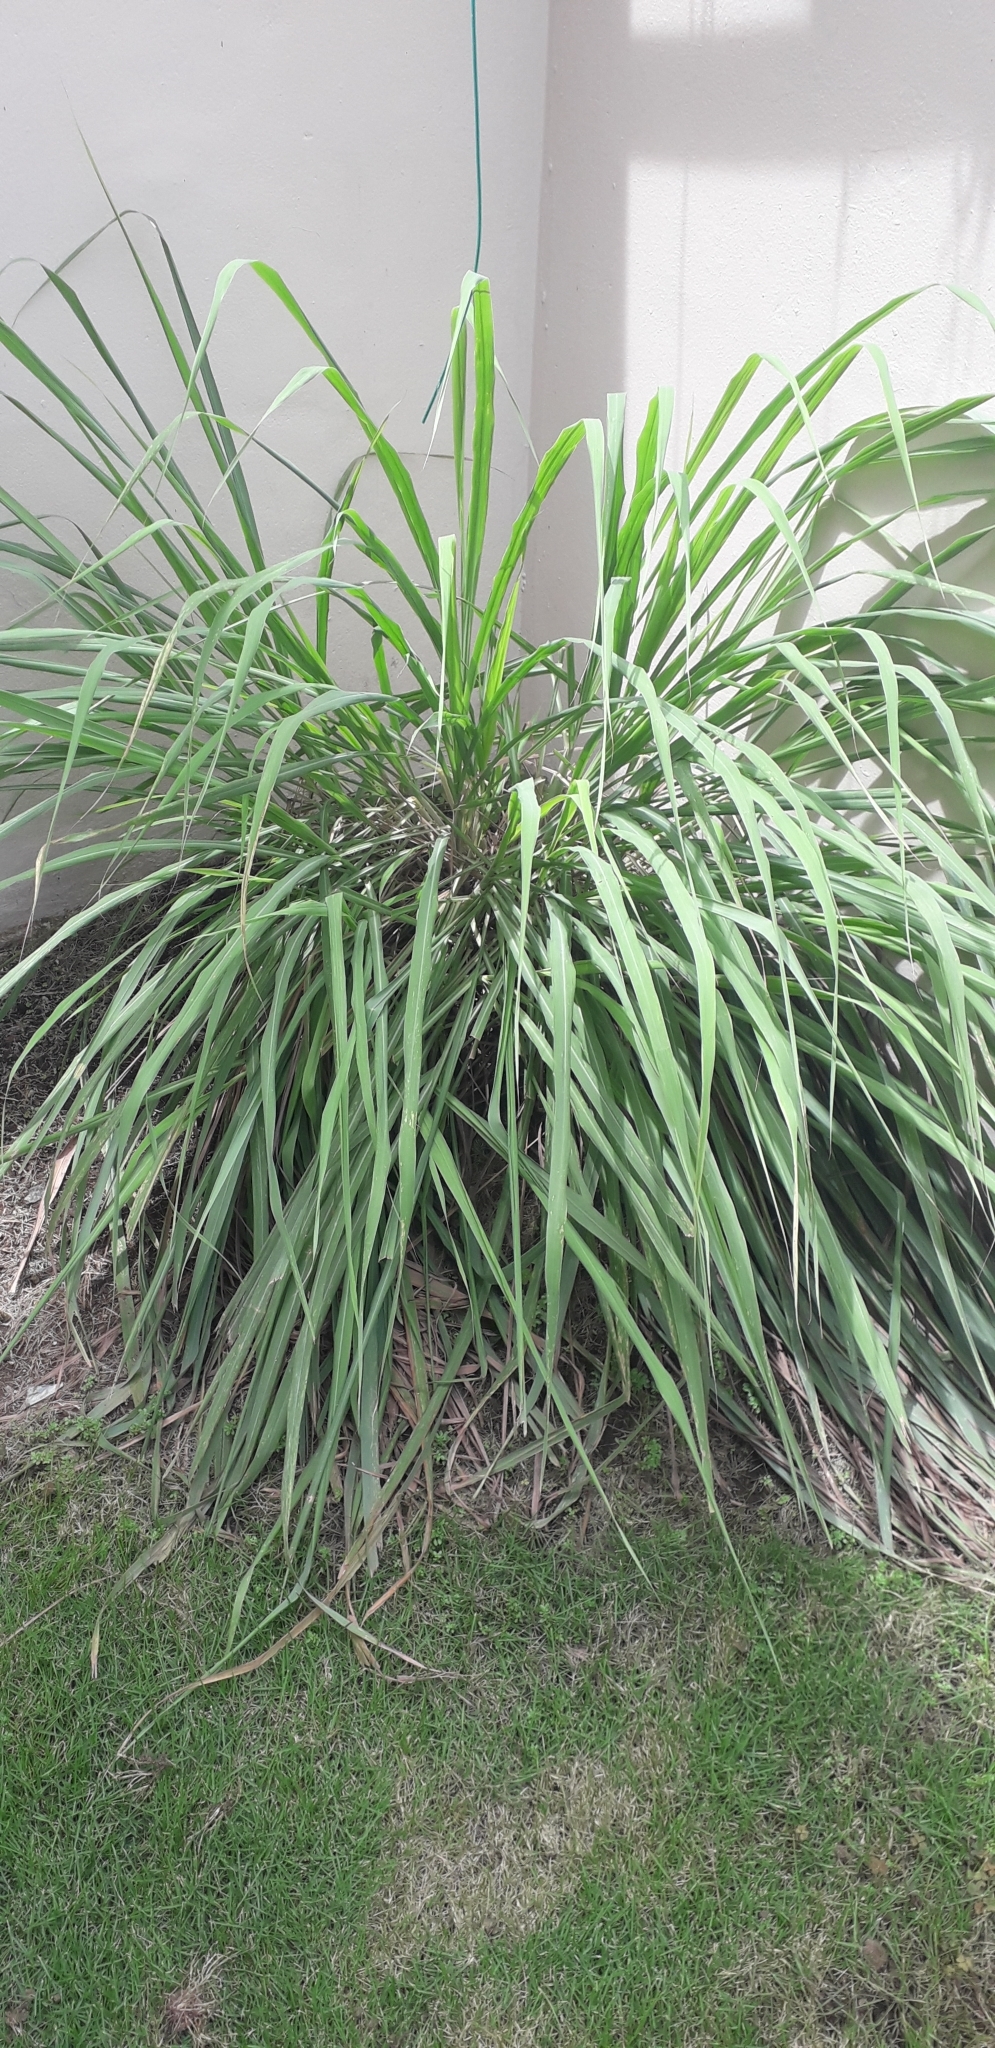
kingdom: Plantae
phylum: Tracheophyta
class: Liliopsida
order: Poales
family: Poaceae
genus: Cymbopogon
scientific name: Cymbopogon citratus
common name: Lemon grass
